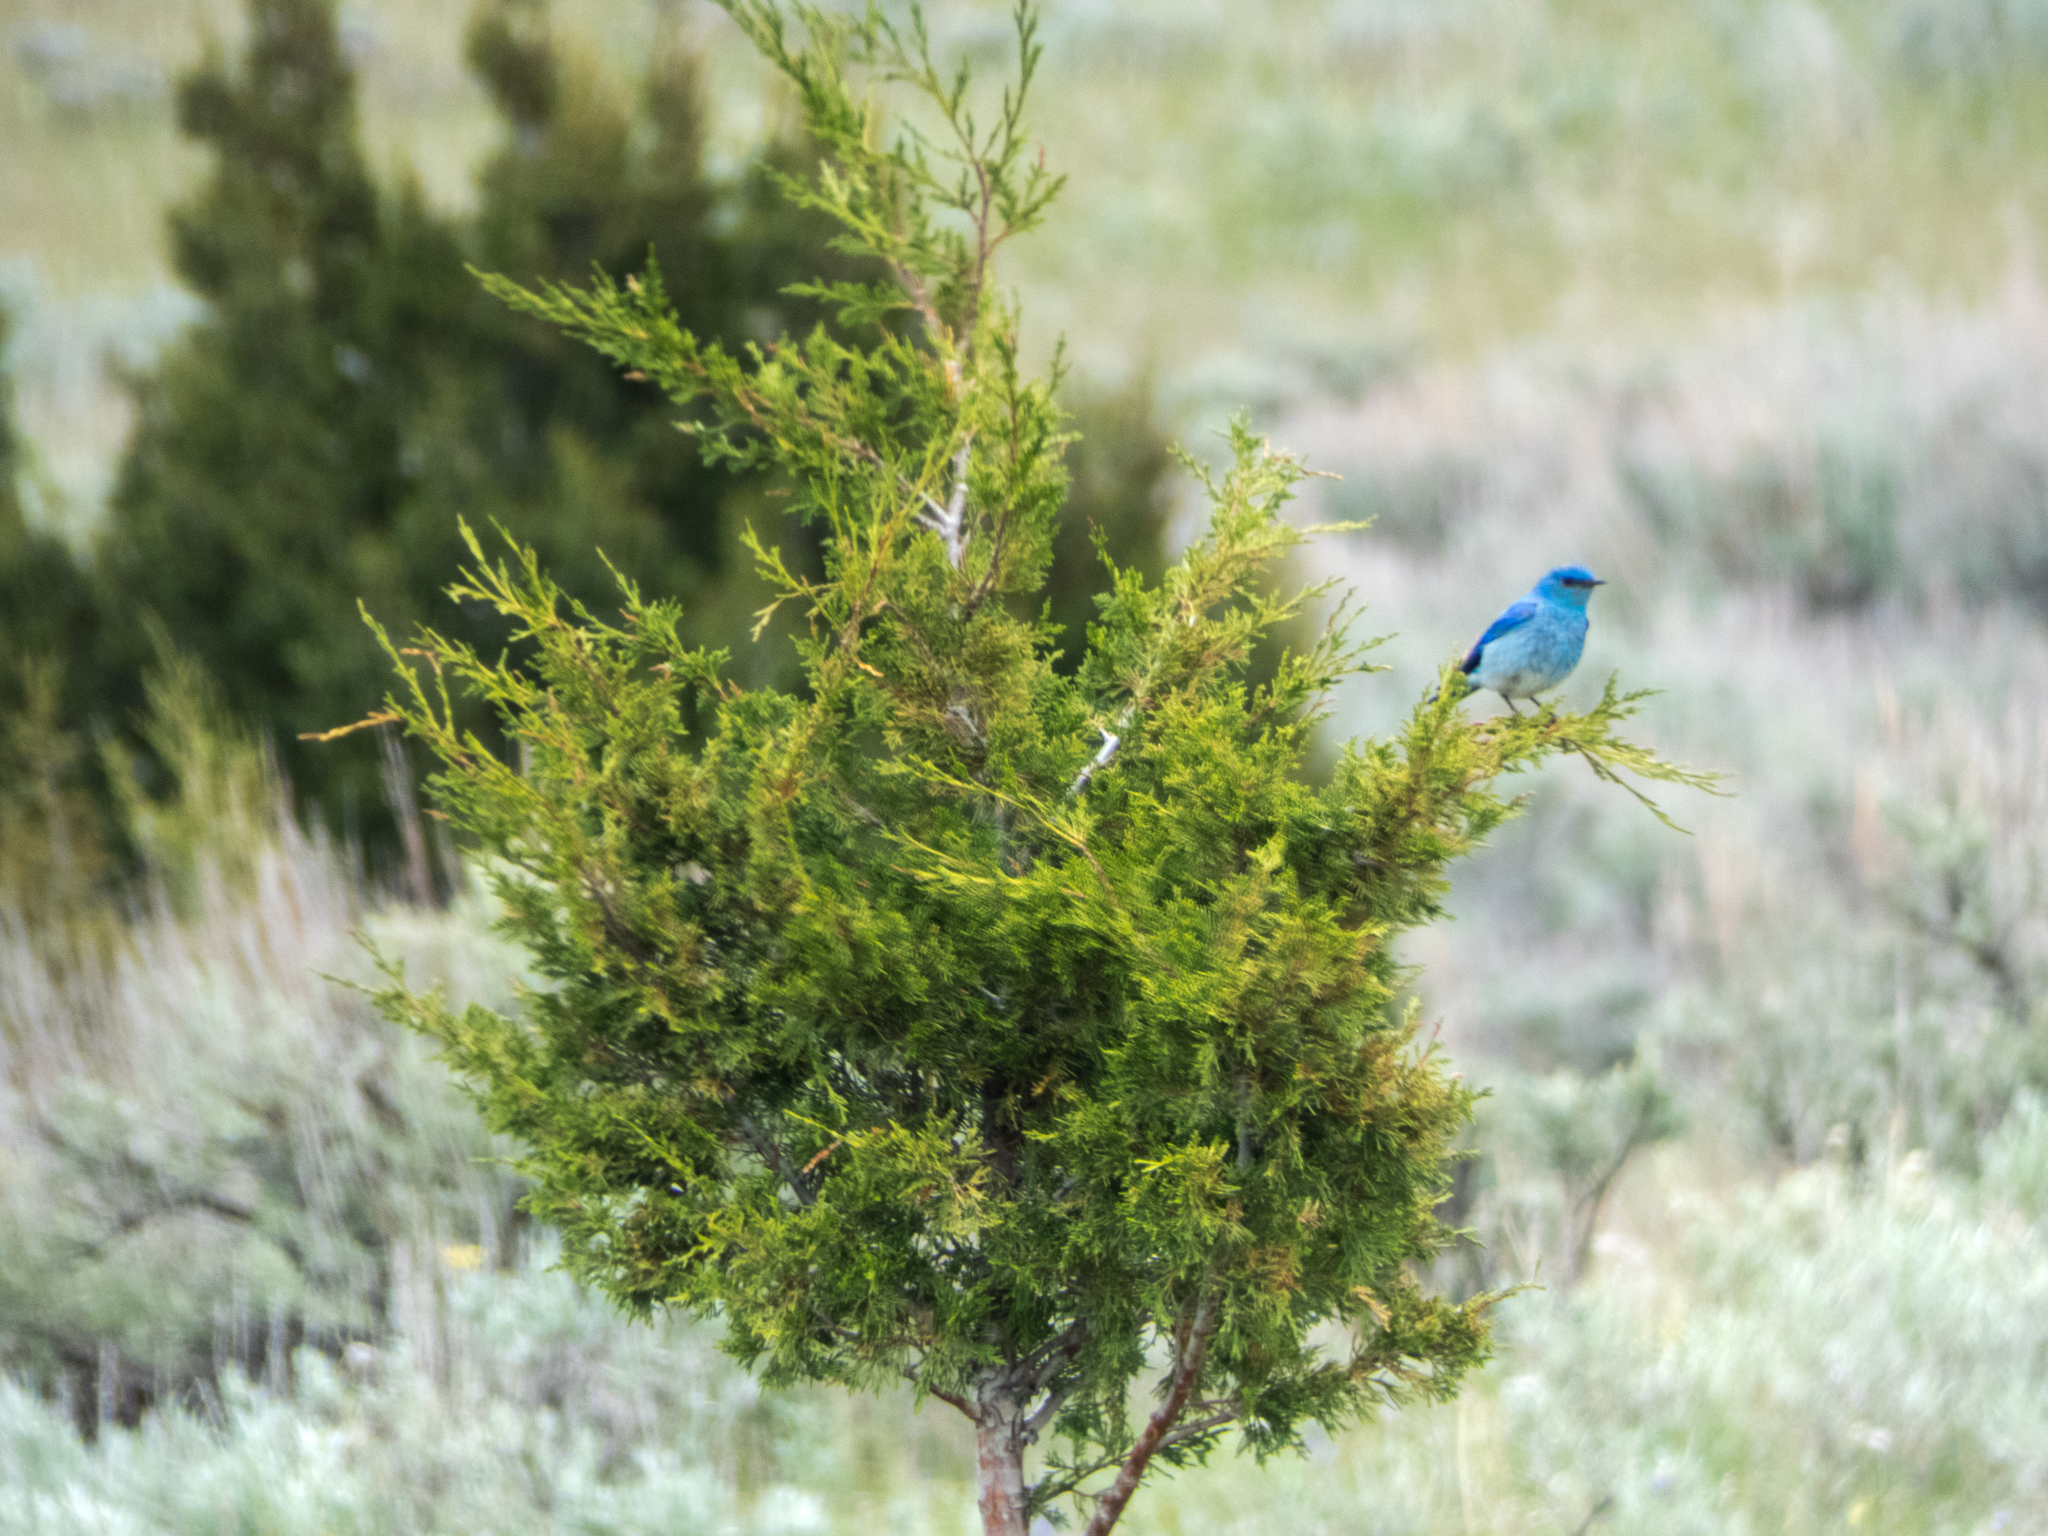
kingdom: Animalia
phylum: Chordata
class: Aves
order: Passeriformes
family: Turdidae
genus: Sialia
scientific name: Sialia currucoides
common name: Mountain bluebird
